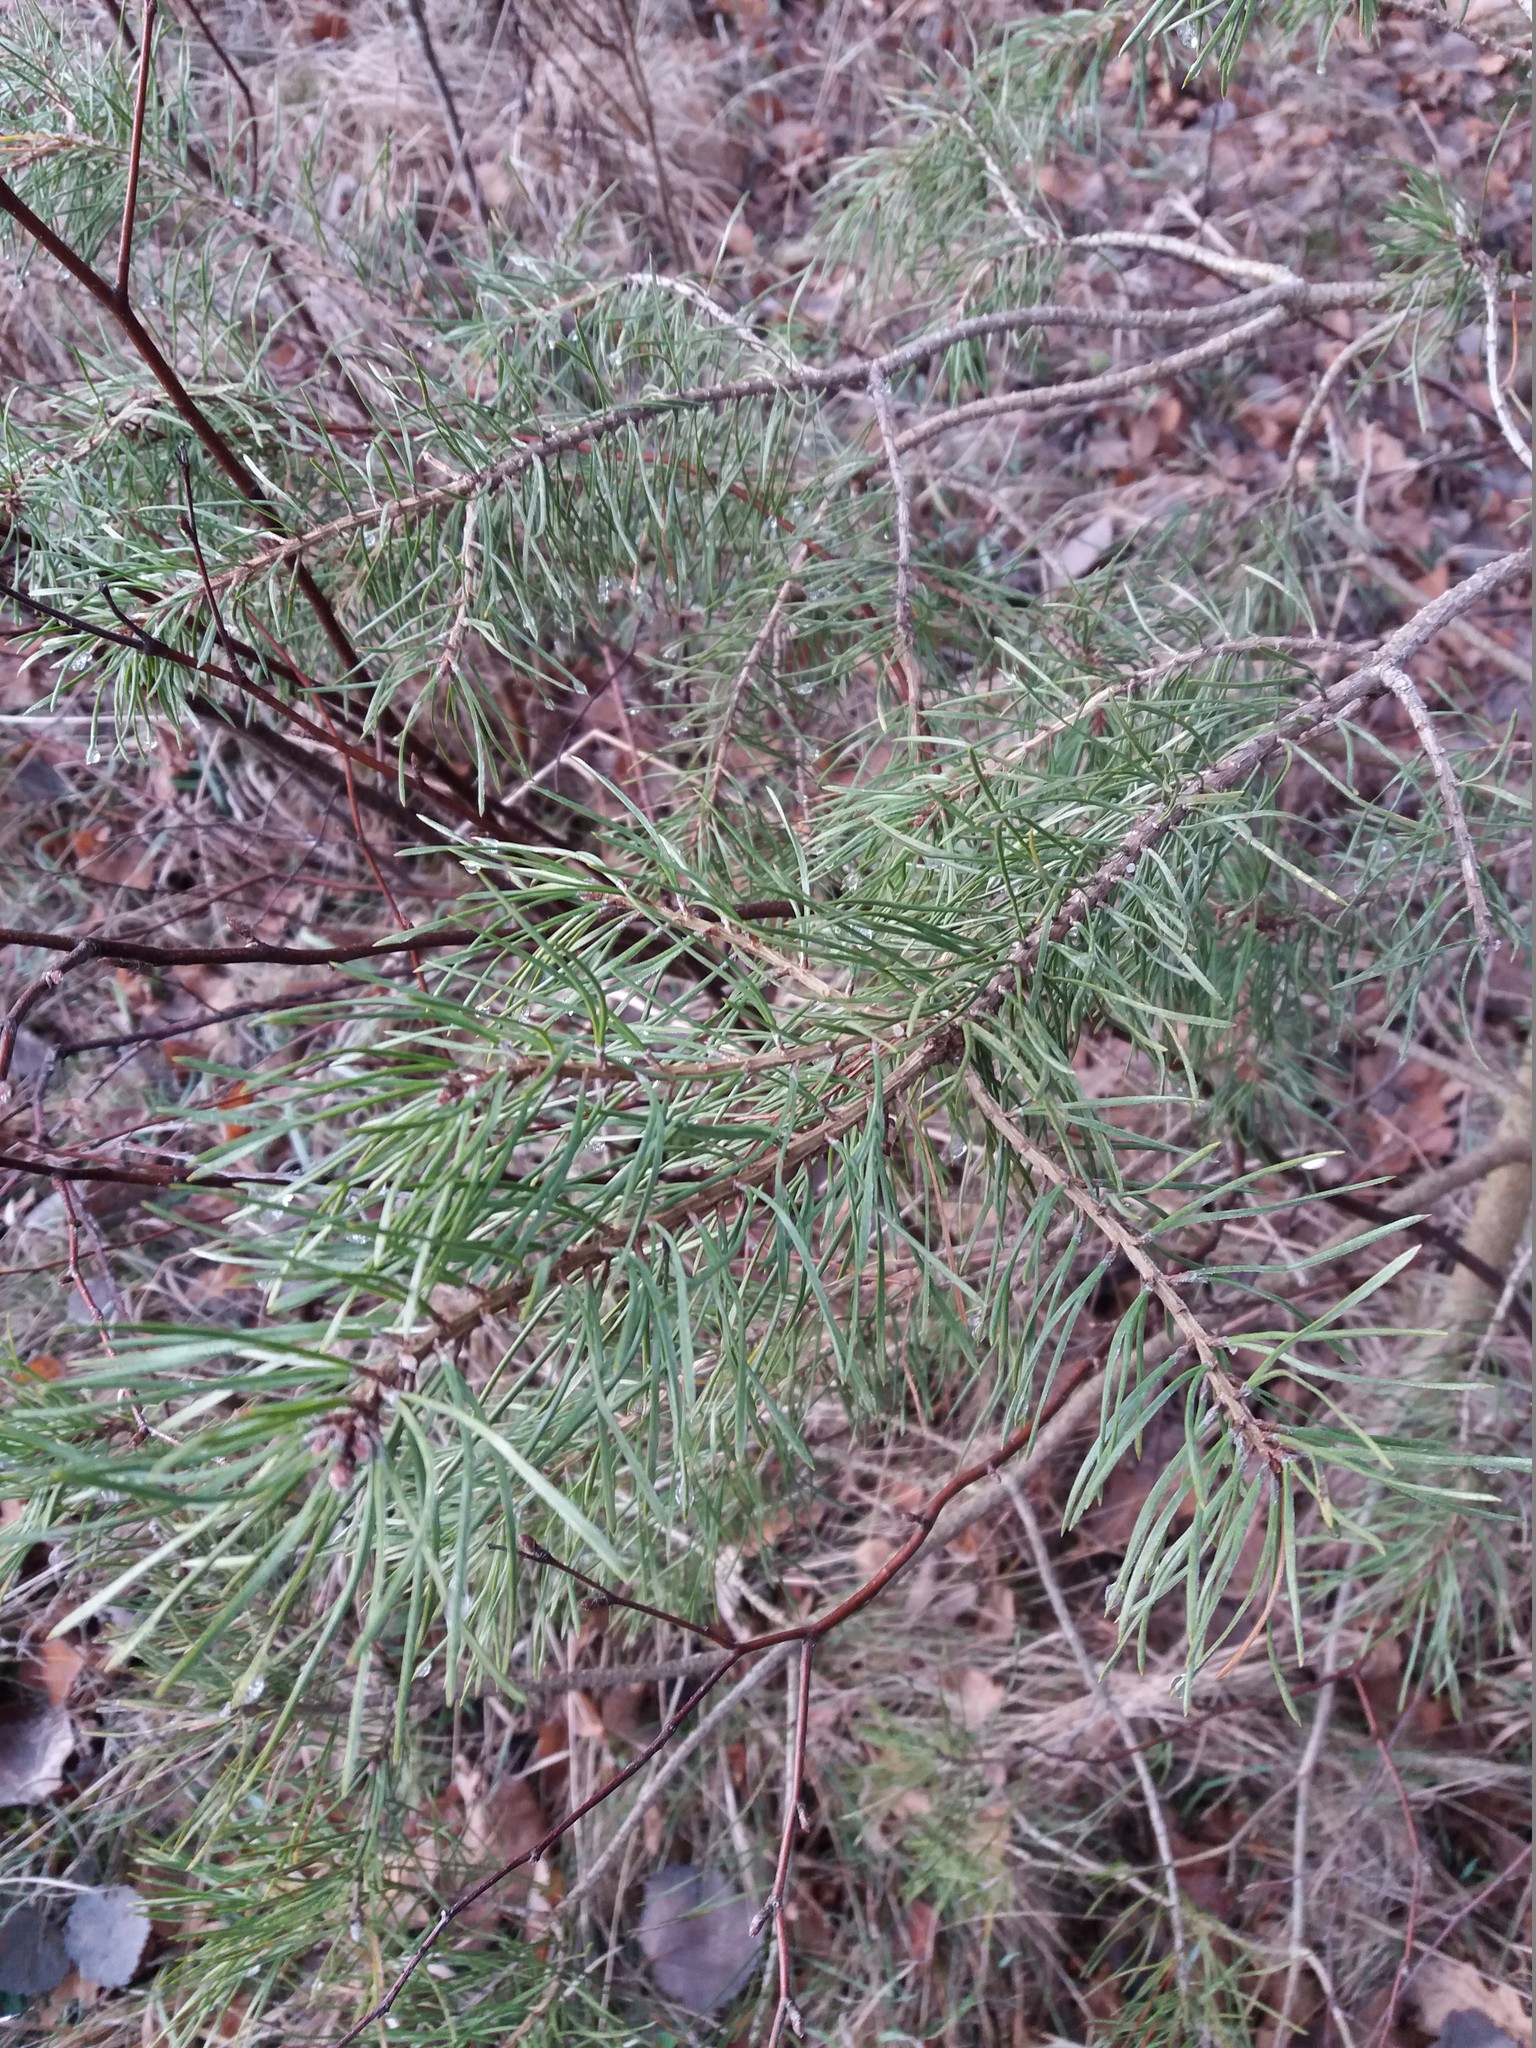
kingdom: Plantae
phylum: Tracheophyta
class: Pinopsida
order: Pinales
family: Pinaceae
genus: Pinus
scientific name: Pinus sylvestris
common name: Scots pine
